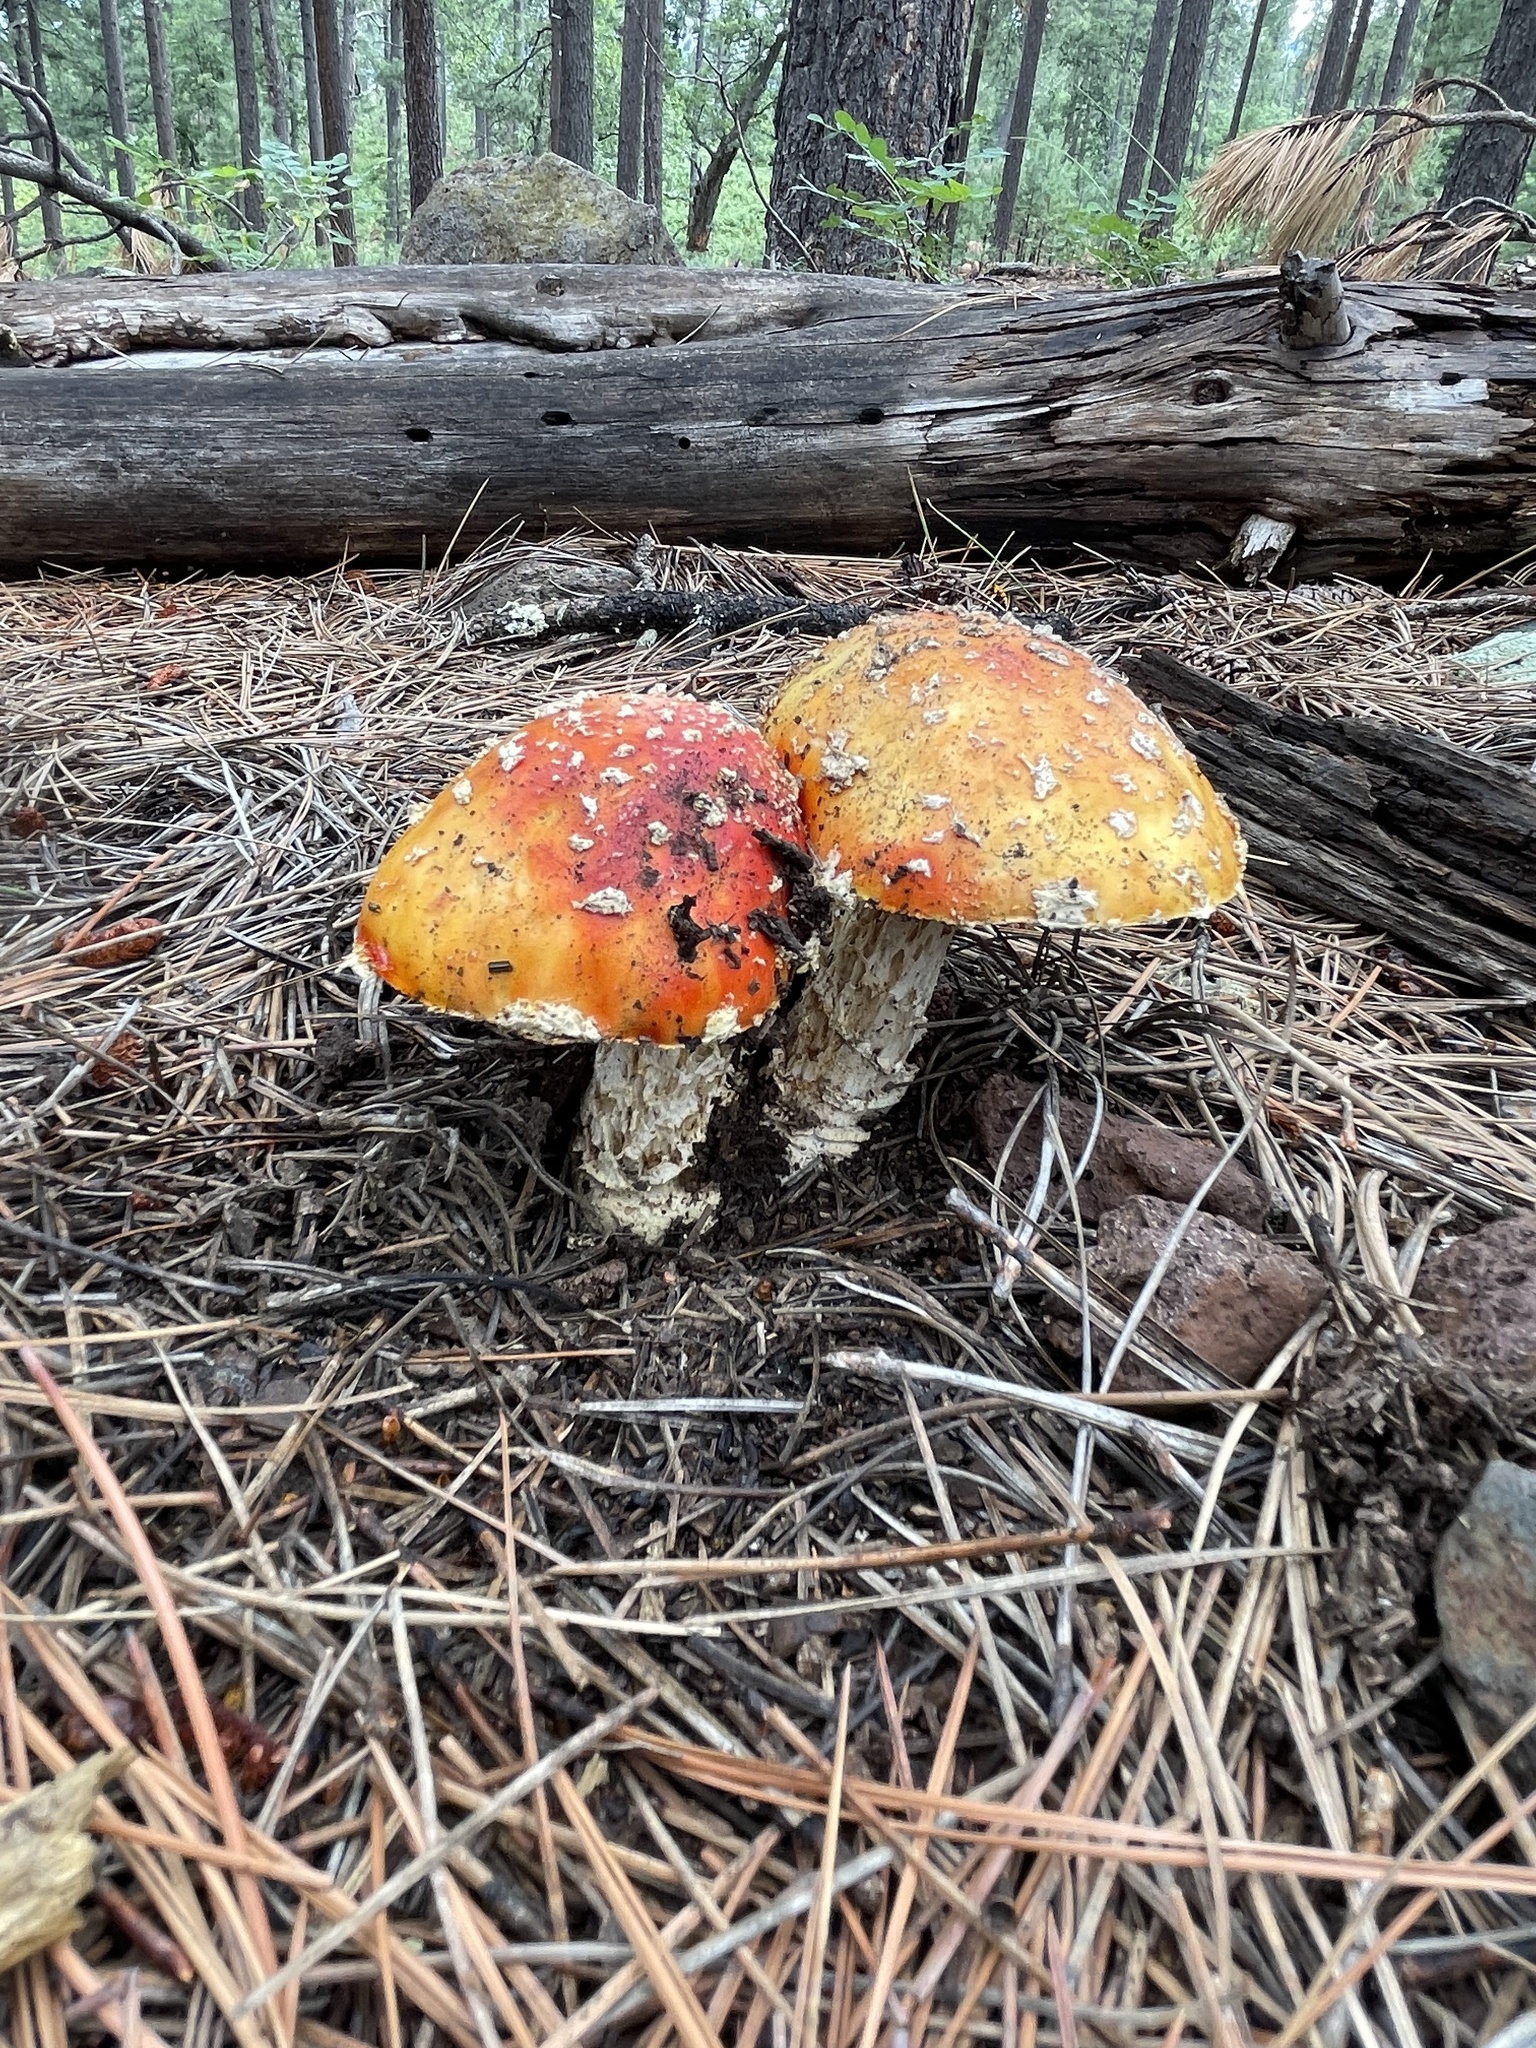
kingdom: Fungi
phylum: Basidiomycota
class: Agaricomycetes
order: Agaricales
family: Amanitaceae
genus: Amanita
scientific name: Amanita muscaria
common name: Fly agaric
